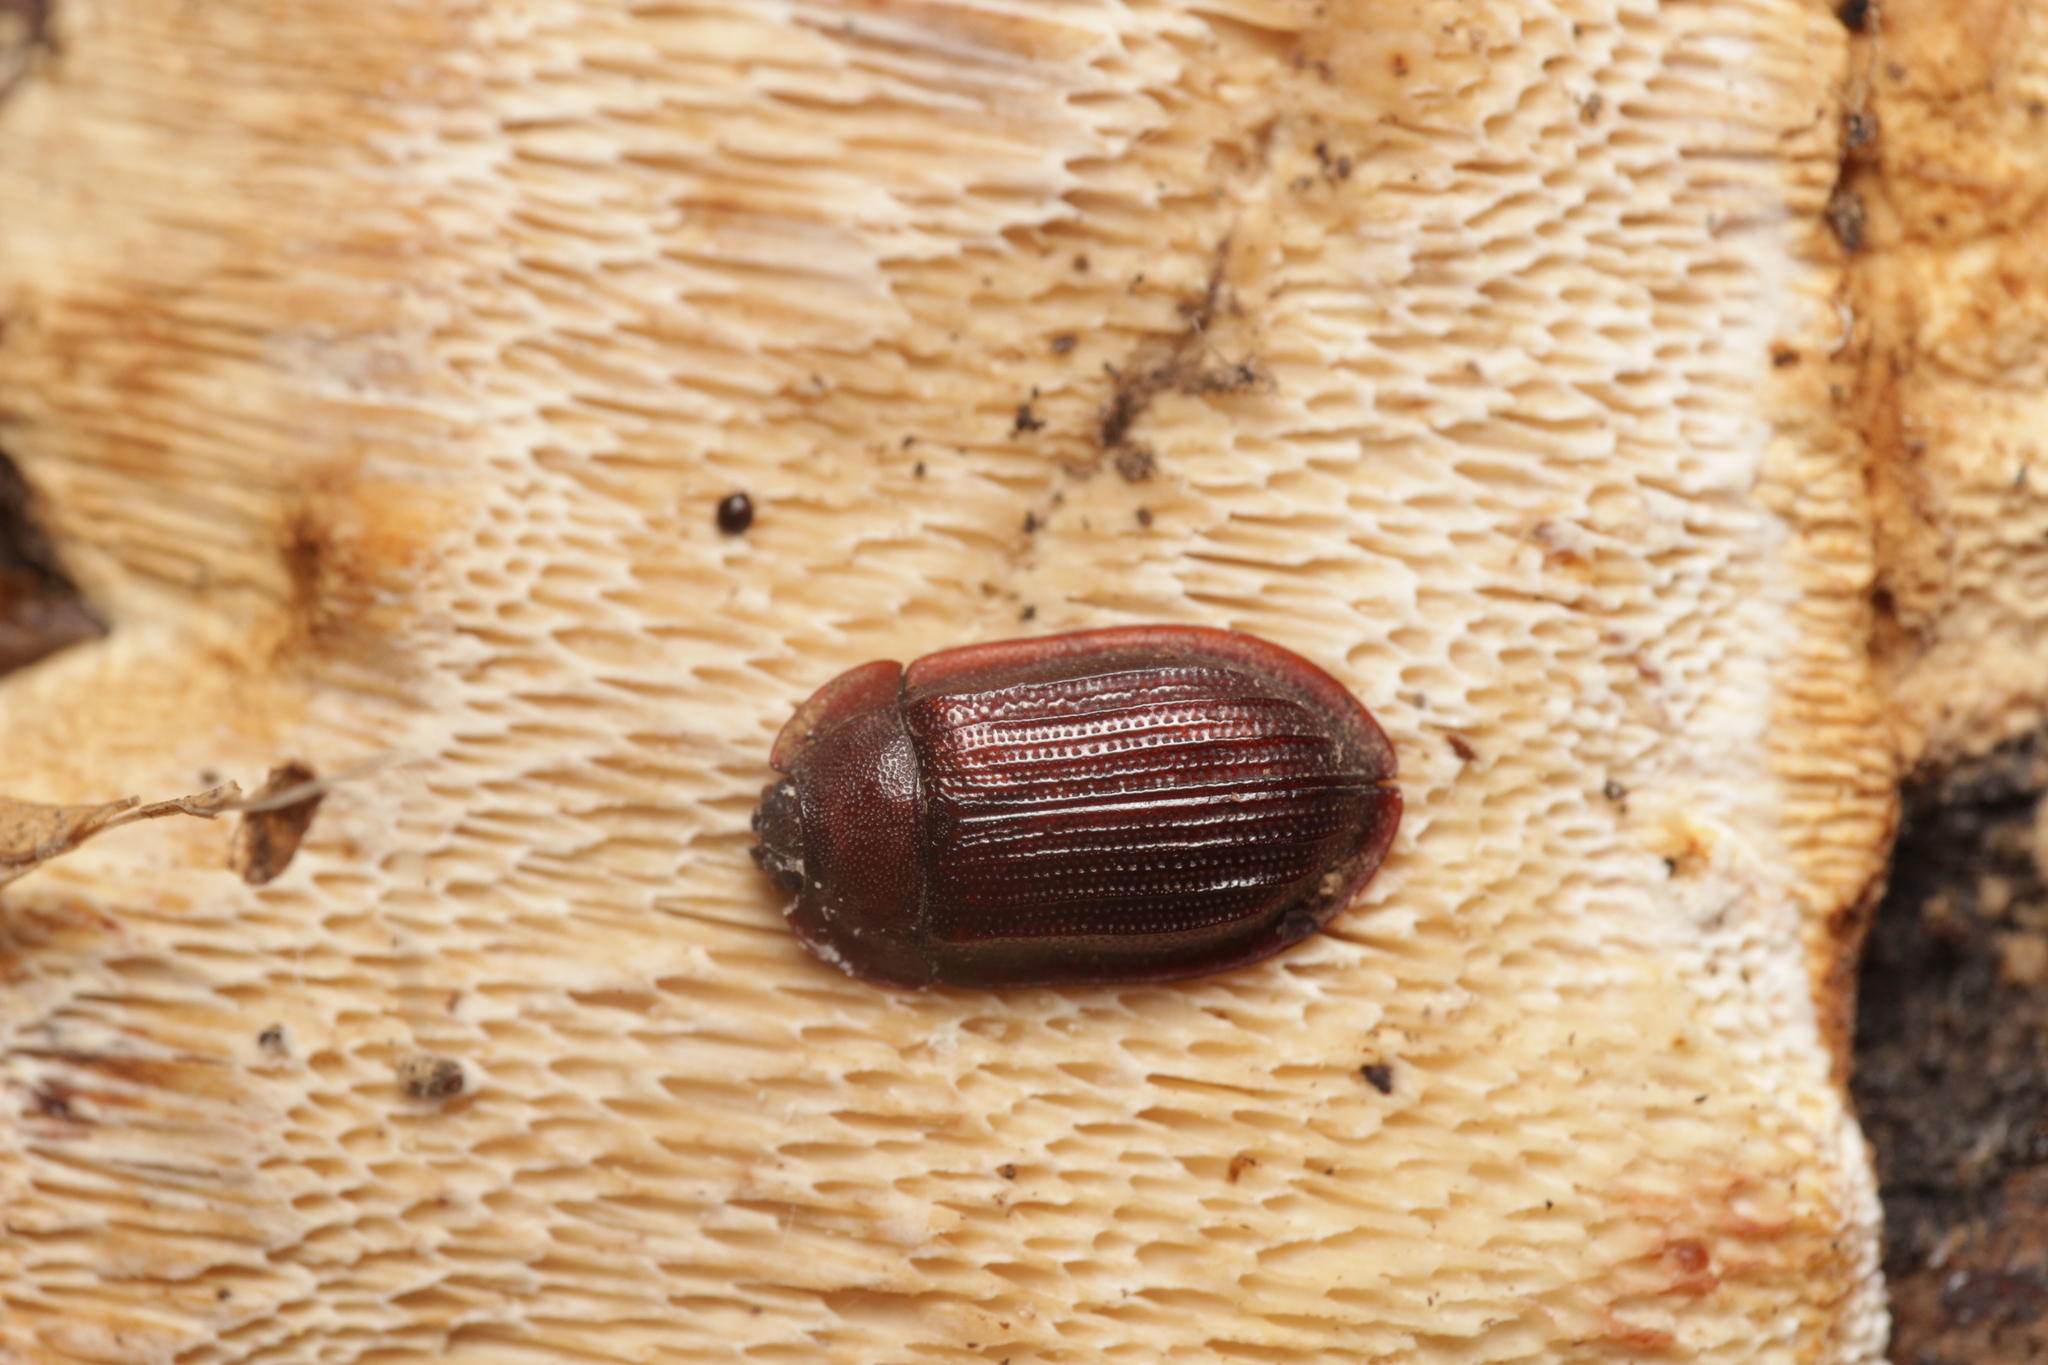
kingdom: Animalia
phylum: Arthropoda
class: Insecta
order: Coleoptera
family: Trogossitidae
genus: Peltis
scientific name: Peltis ferruginea
